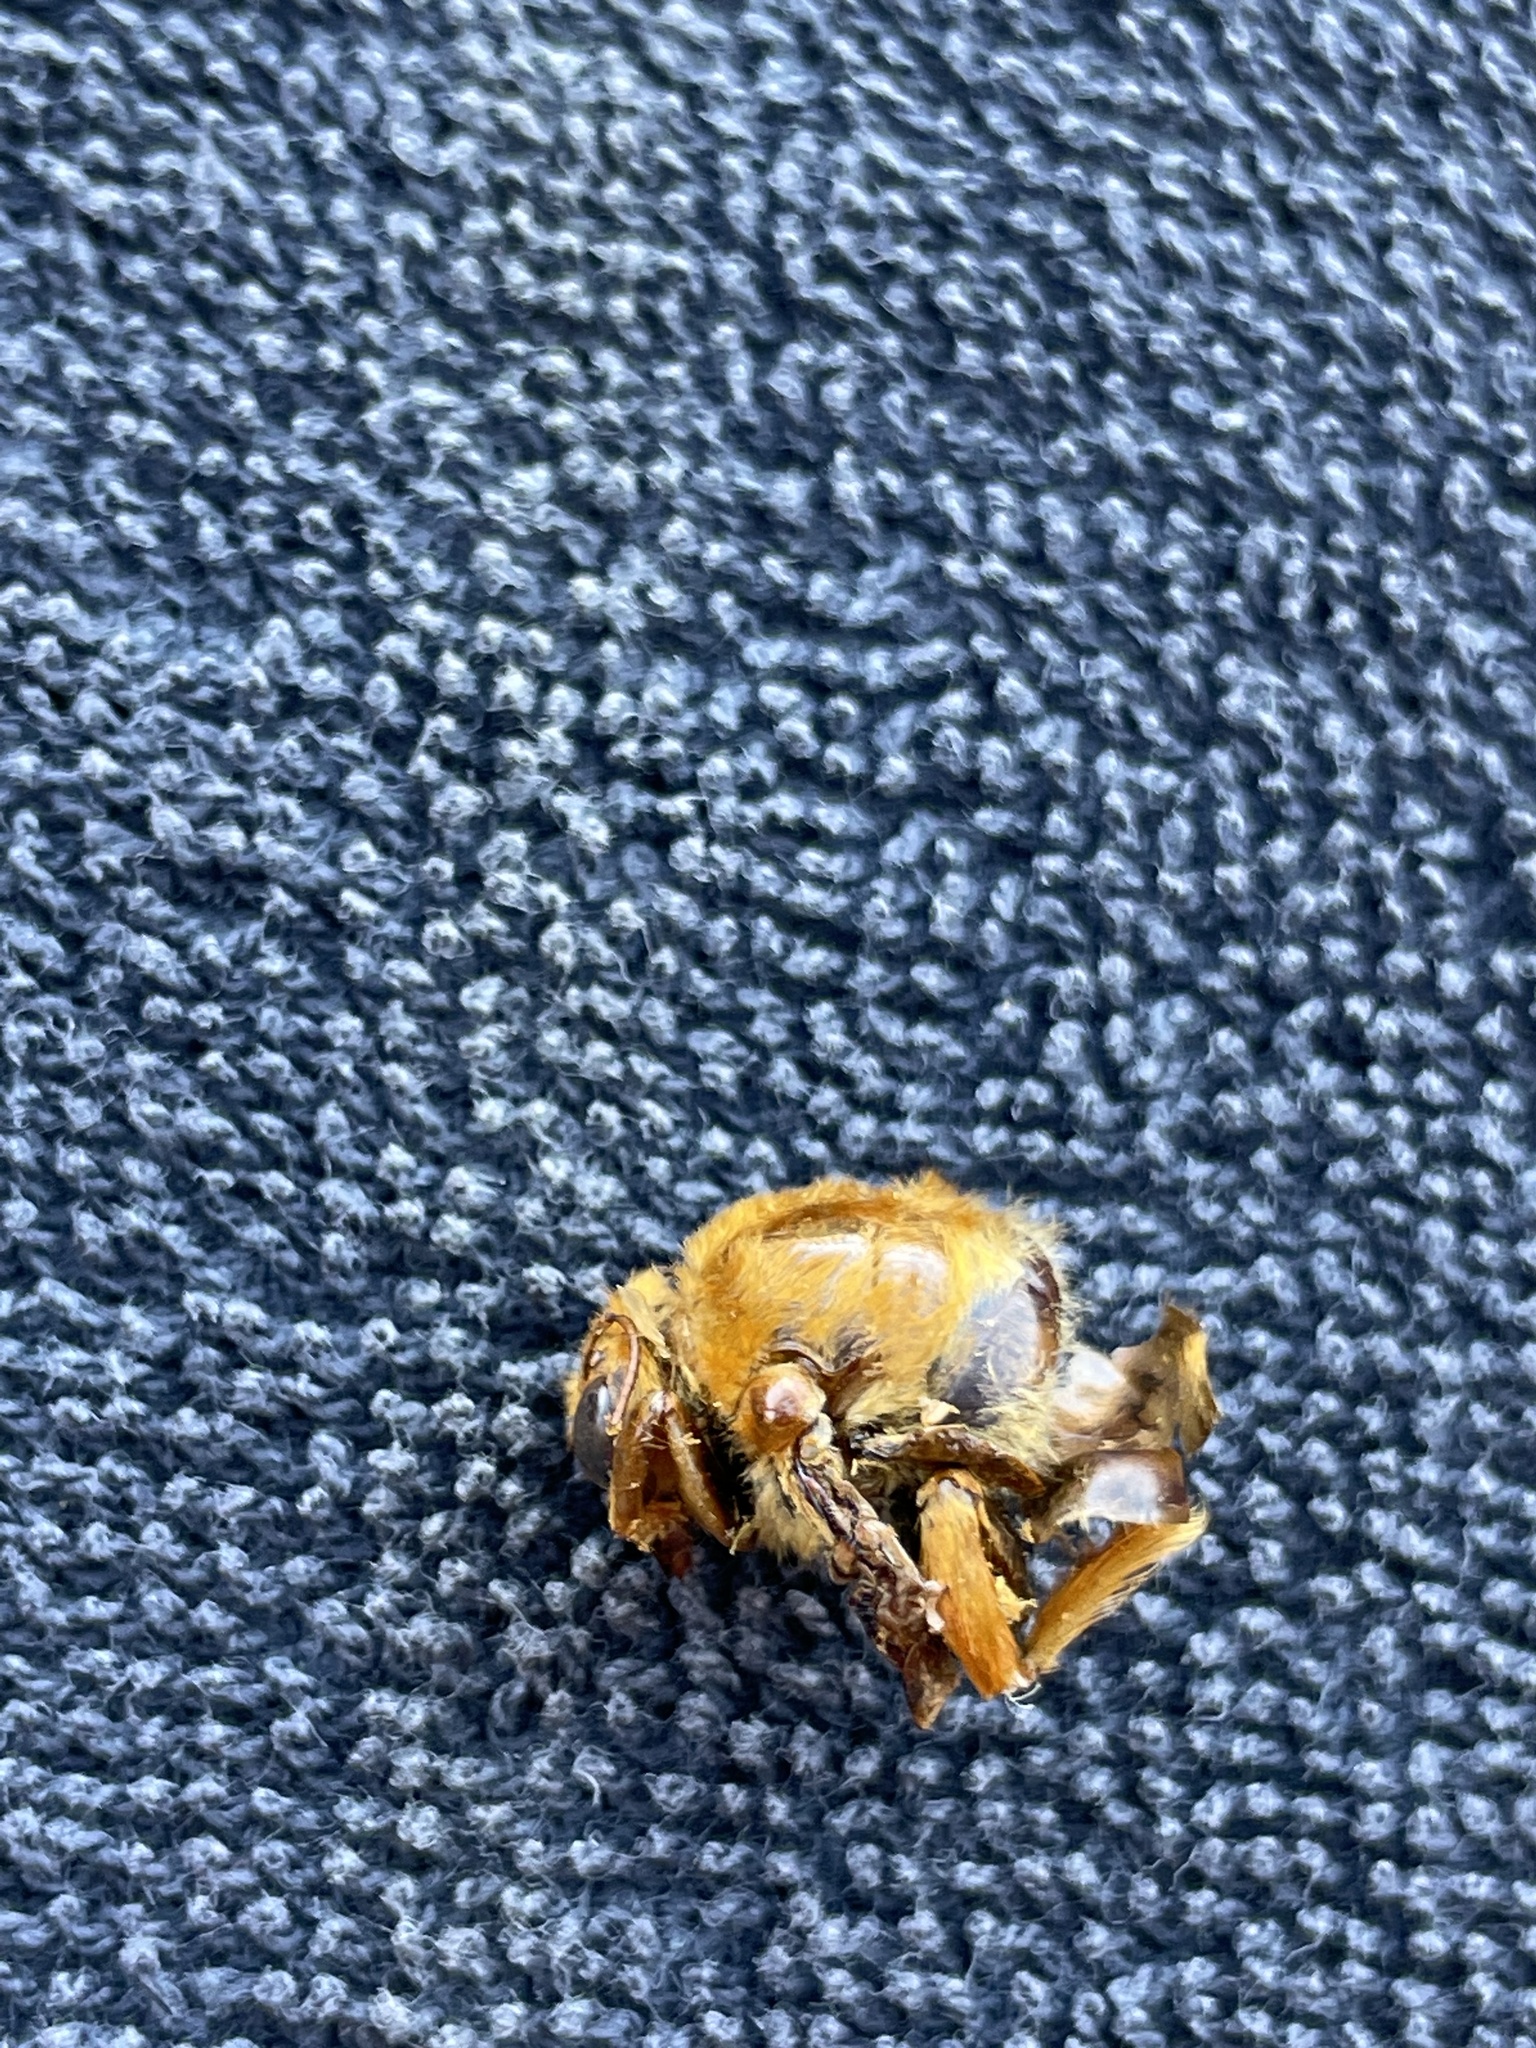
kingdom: Animalia
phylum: Arthropoda
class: Insecta
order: Hymenoptera
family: Apidae
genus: Xylocopa
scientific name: Xylocopa sonorina
